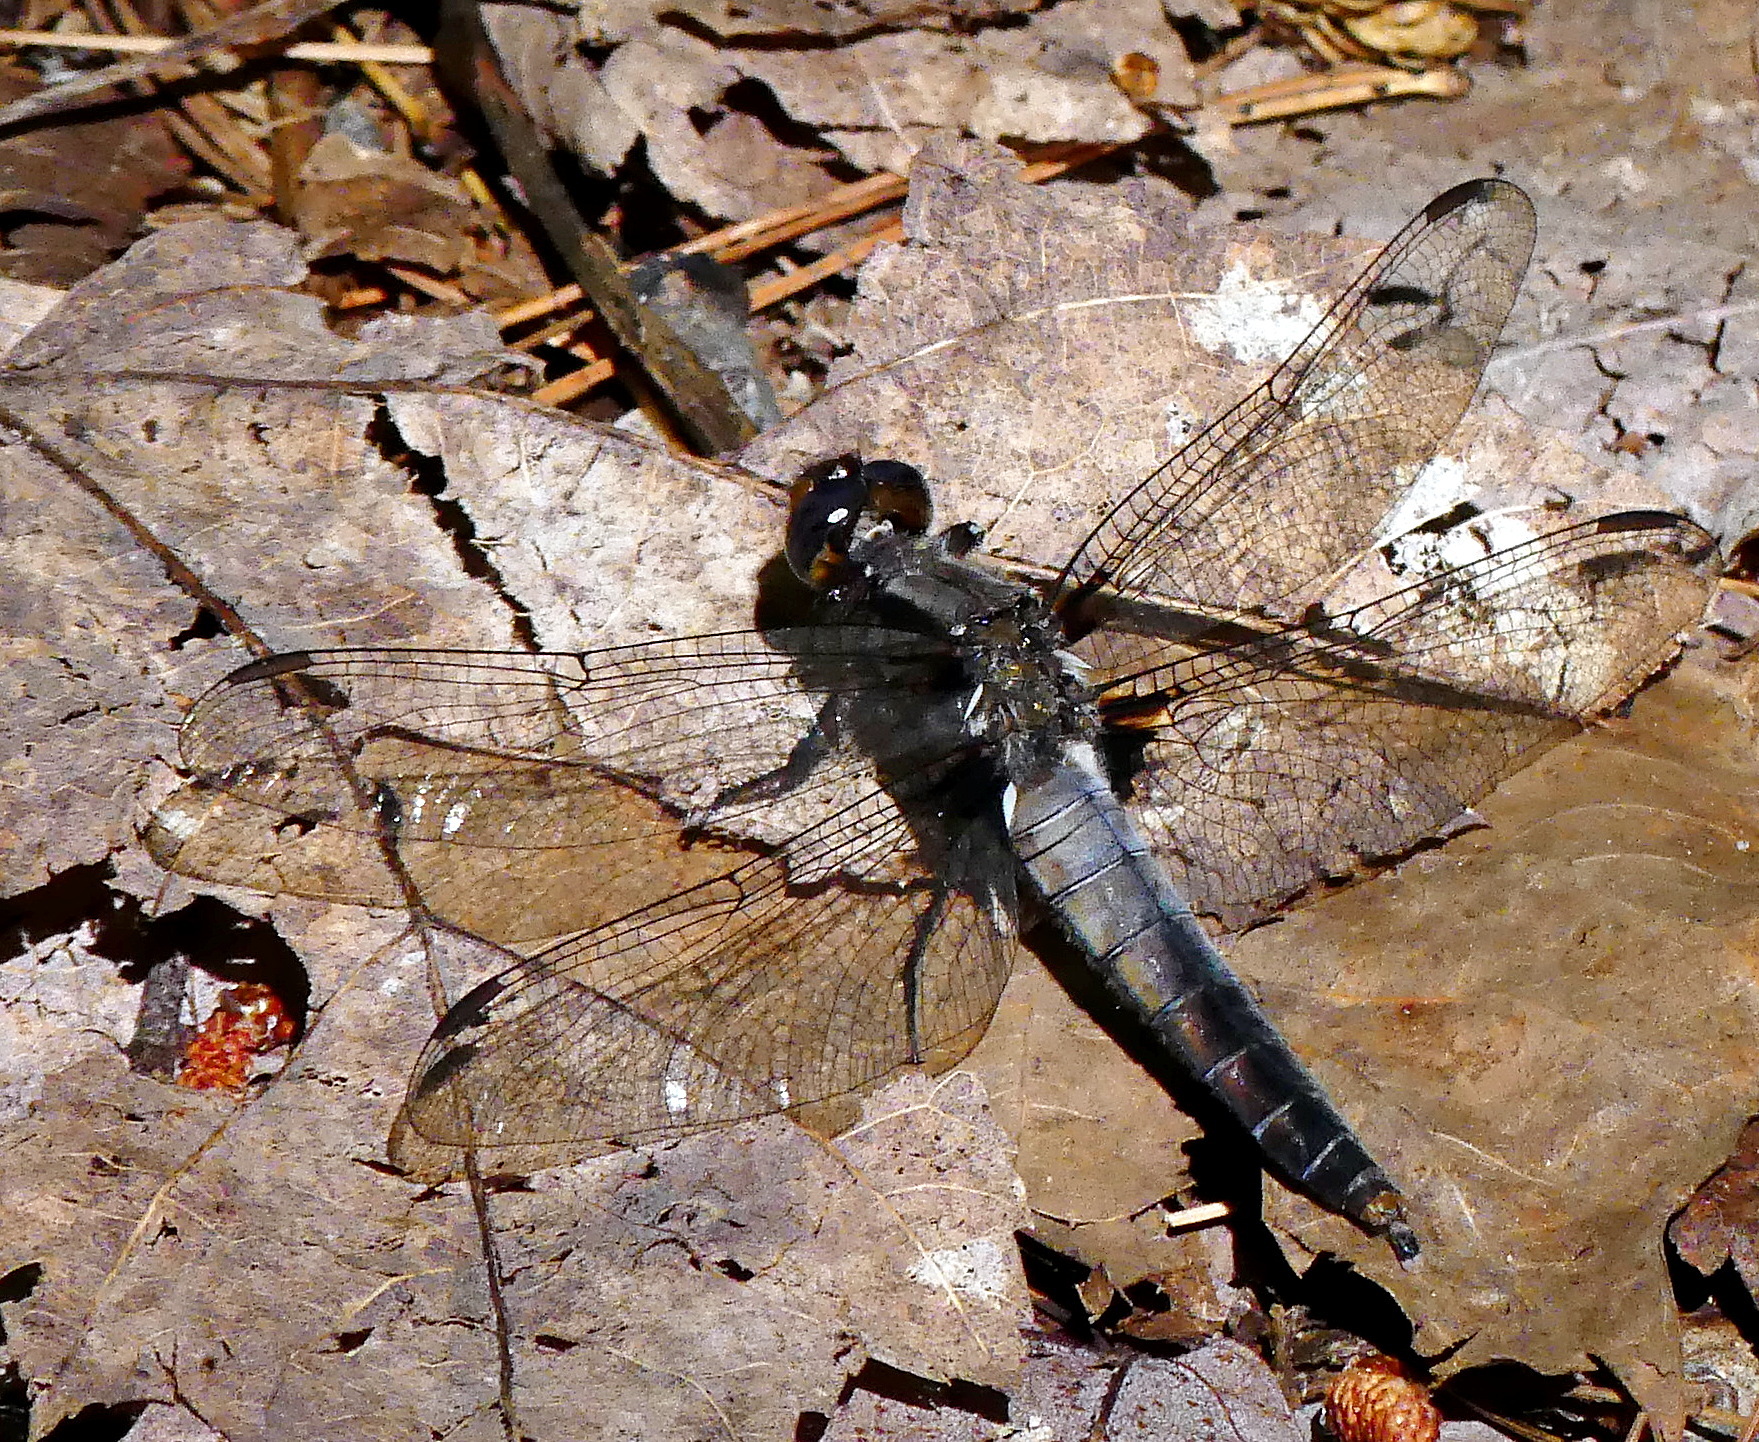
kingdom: Animalia
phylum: Arthropoda
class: Insecta
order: Odonata
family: Libellulidae
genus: Ladona
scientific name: Ladona julia
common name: Chalk-fronted corporal
